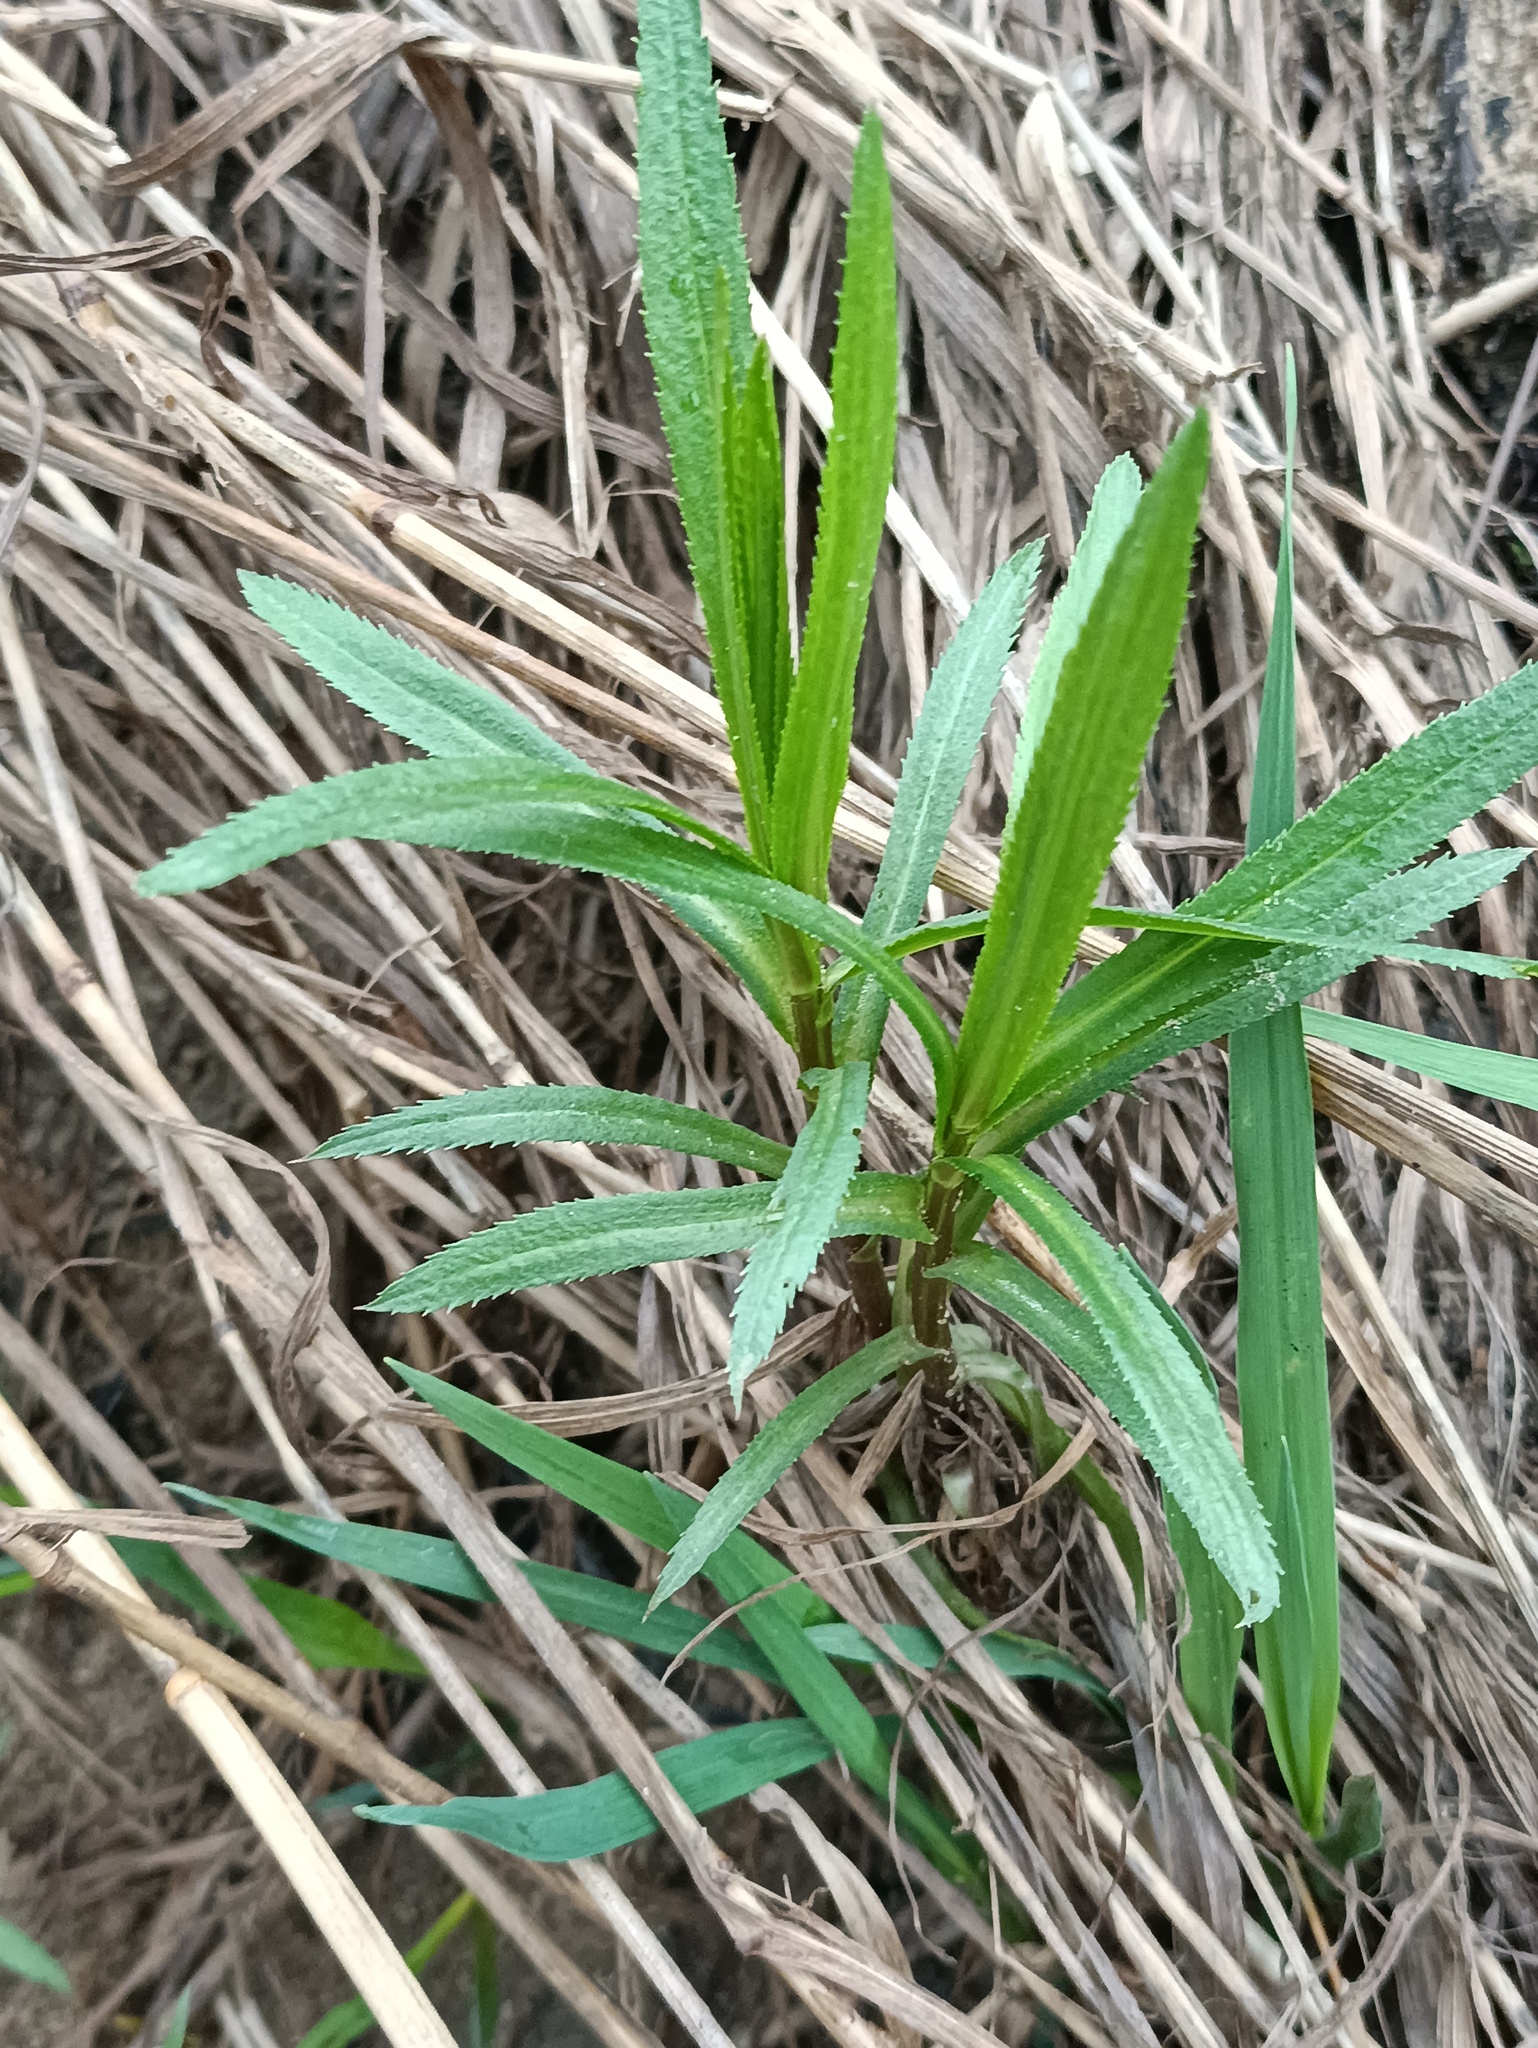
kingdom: Plantae
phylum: Tracheophyta
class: Magnoliopsida
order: Asterales
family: Asteraceae
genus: Achillea
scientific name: Achillea salicifolia
